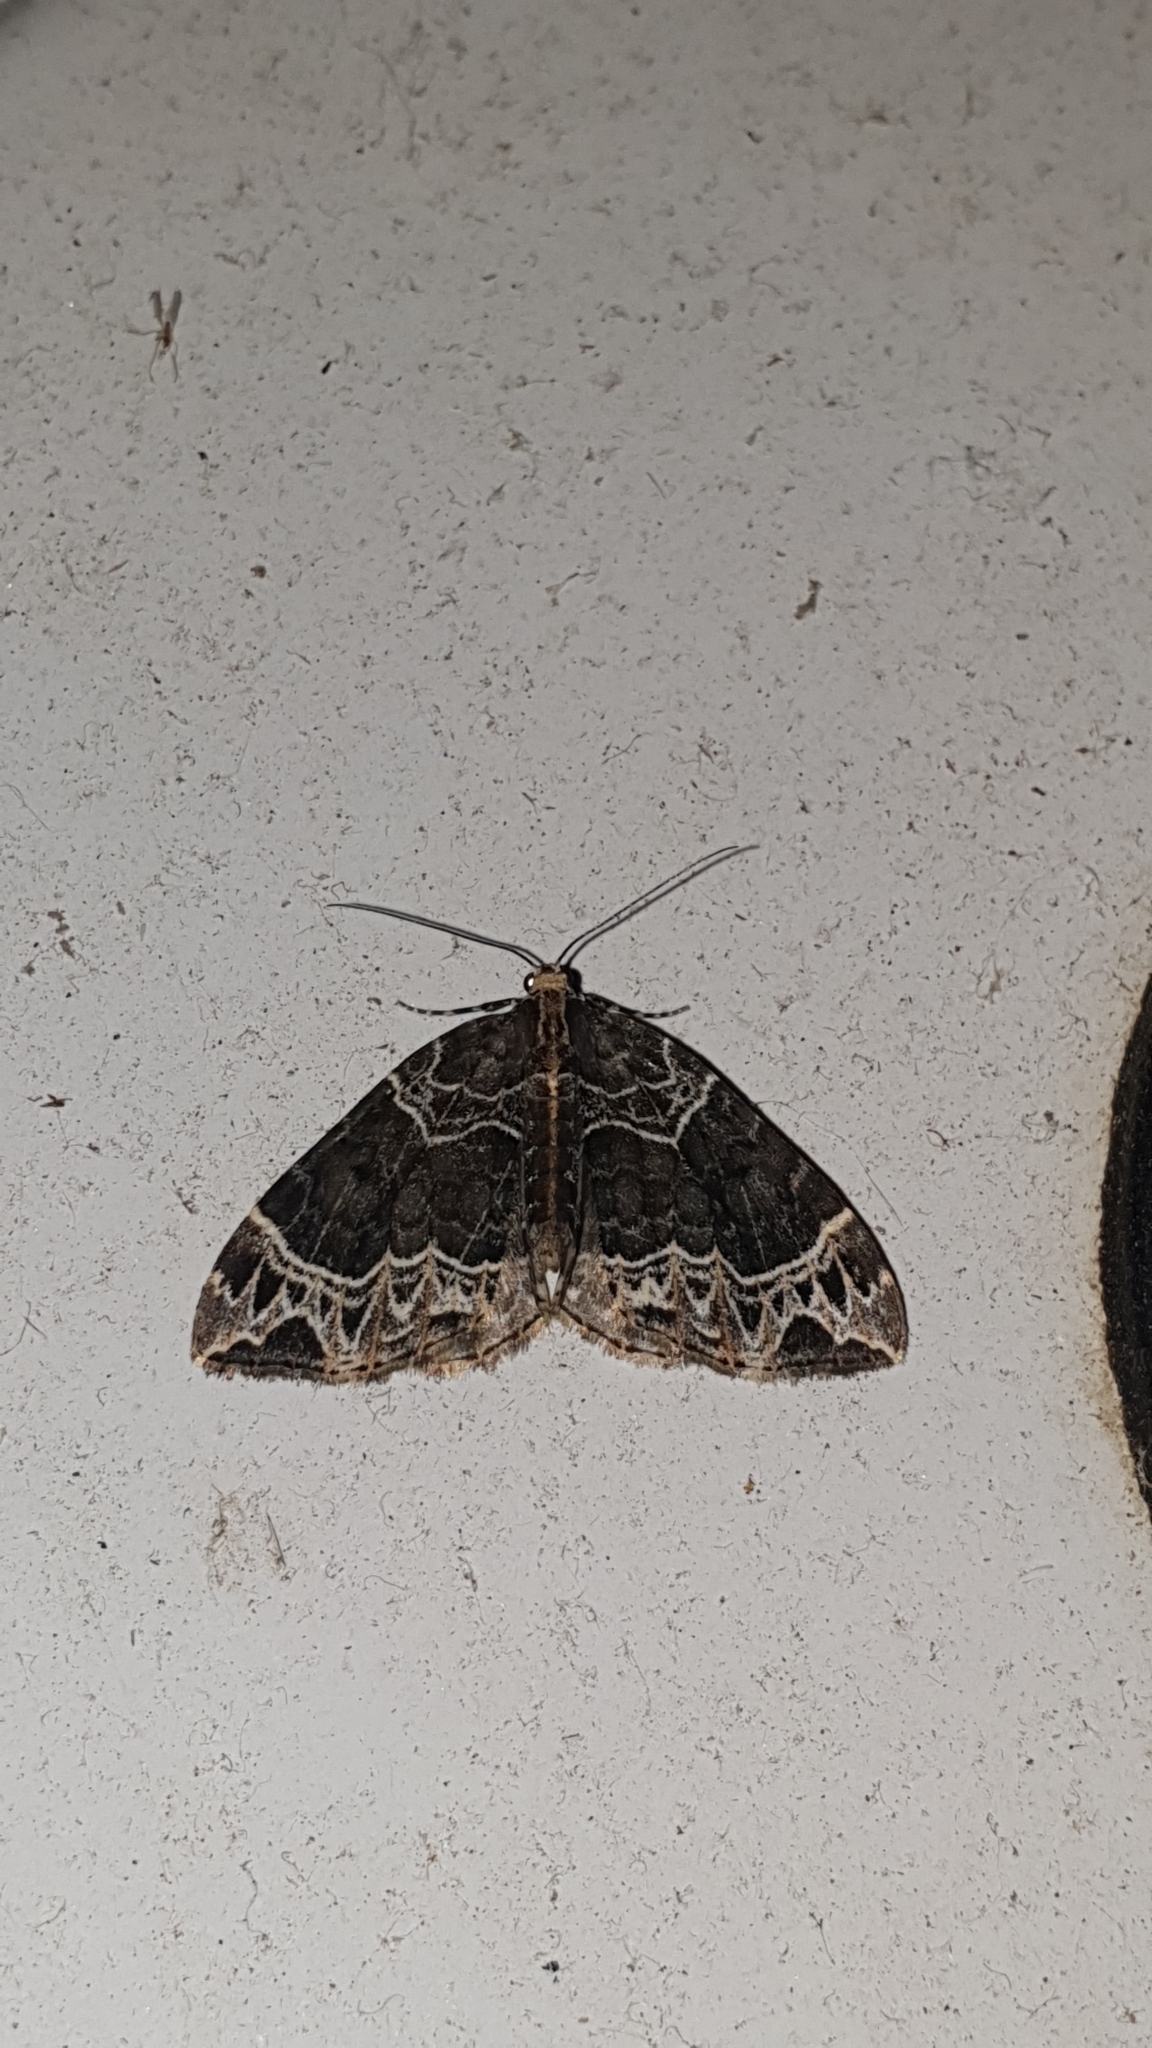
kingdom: Animalia
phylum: Arthropoda
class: Insecta
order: Lepidoptera
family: Geometridae
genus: Ecliptopera
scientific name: Ecliptopera silaceata
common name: Small phoenix
